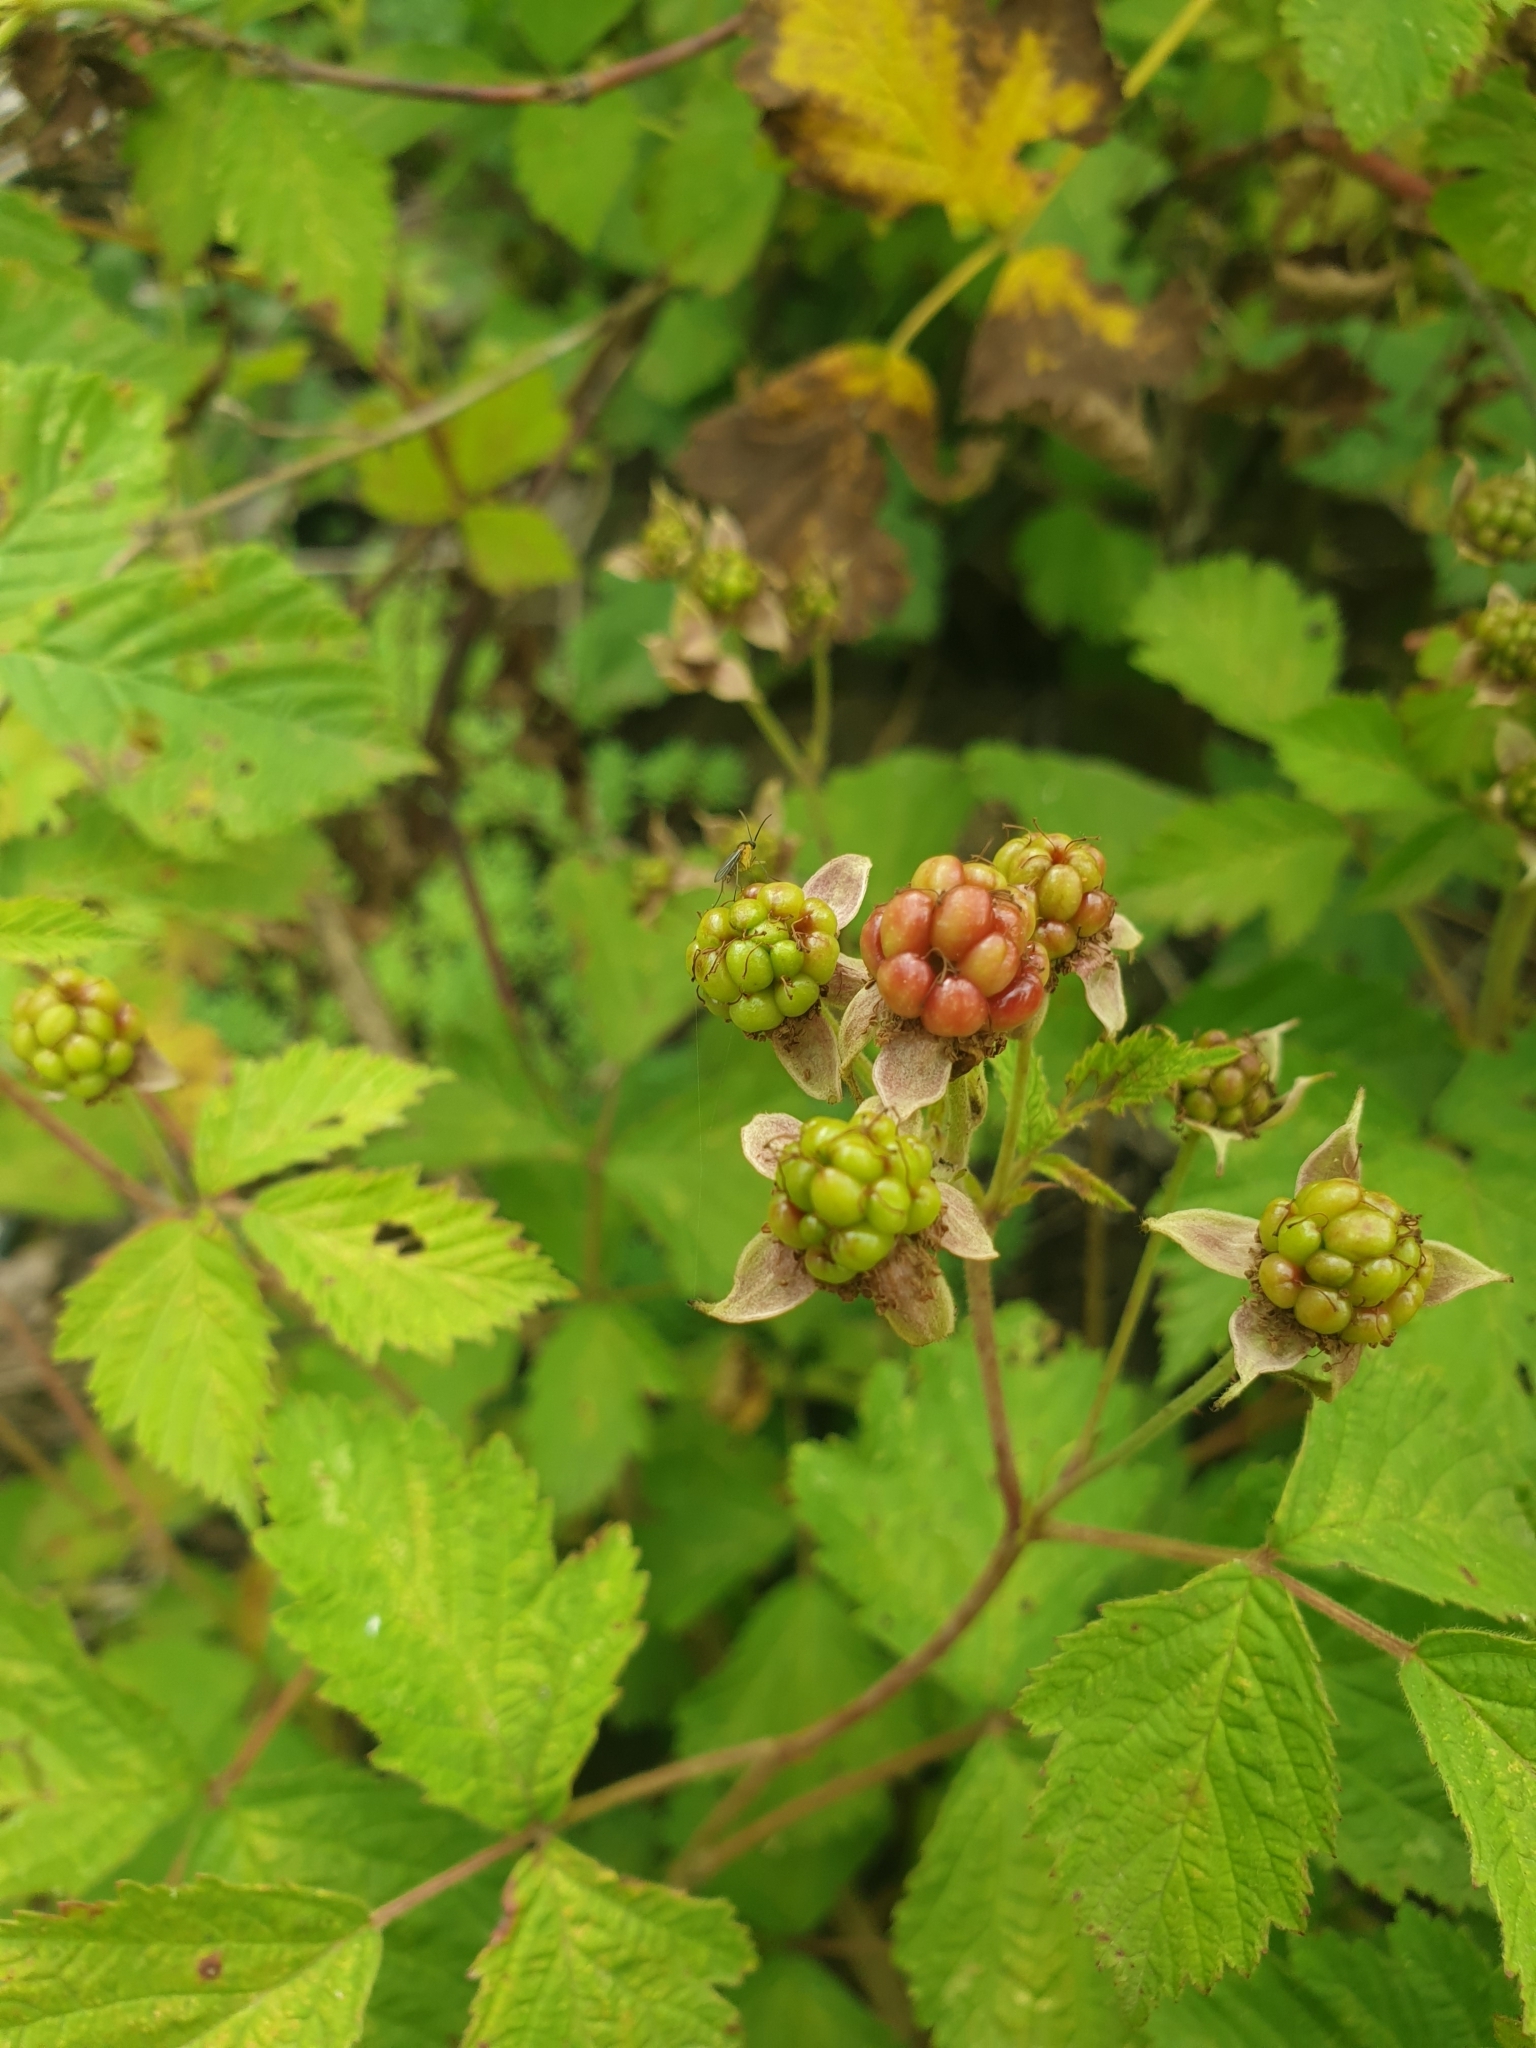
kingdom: Plantae
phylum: Tracheophyta
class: Magnoliopsida
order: Rosales
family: Rosaceae
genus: Rubus
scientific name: Rubus caesius
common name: Dewberry
